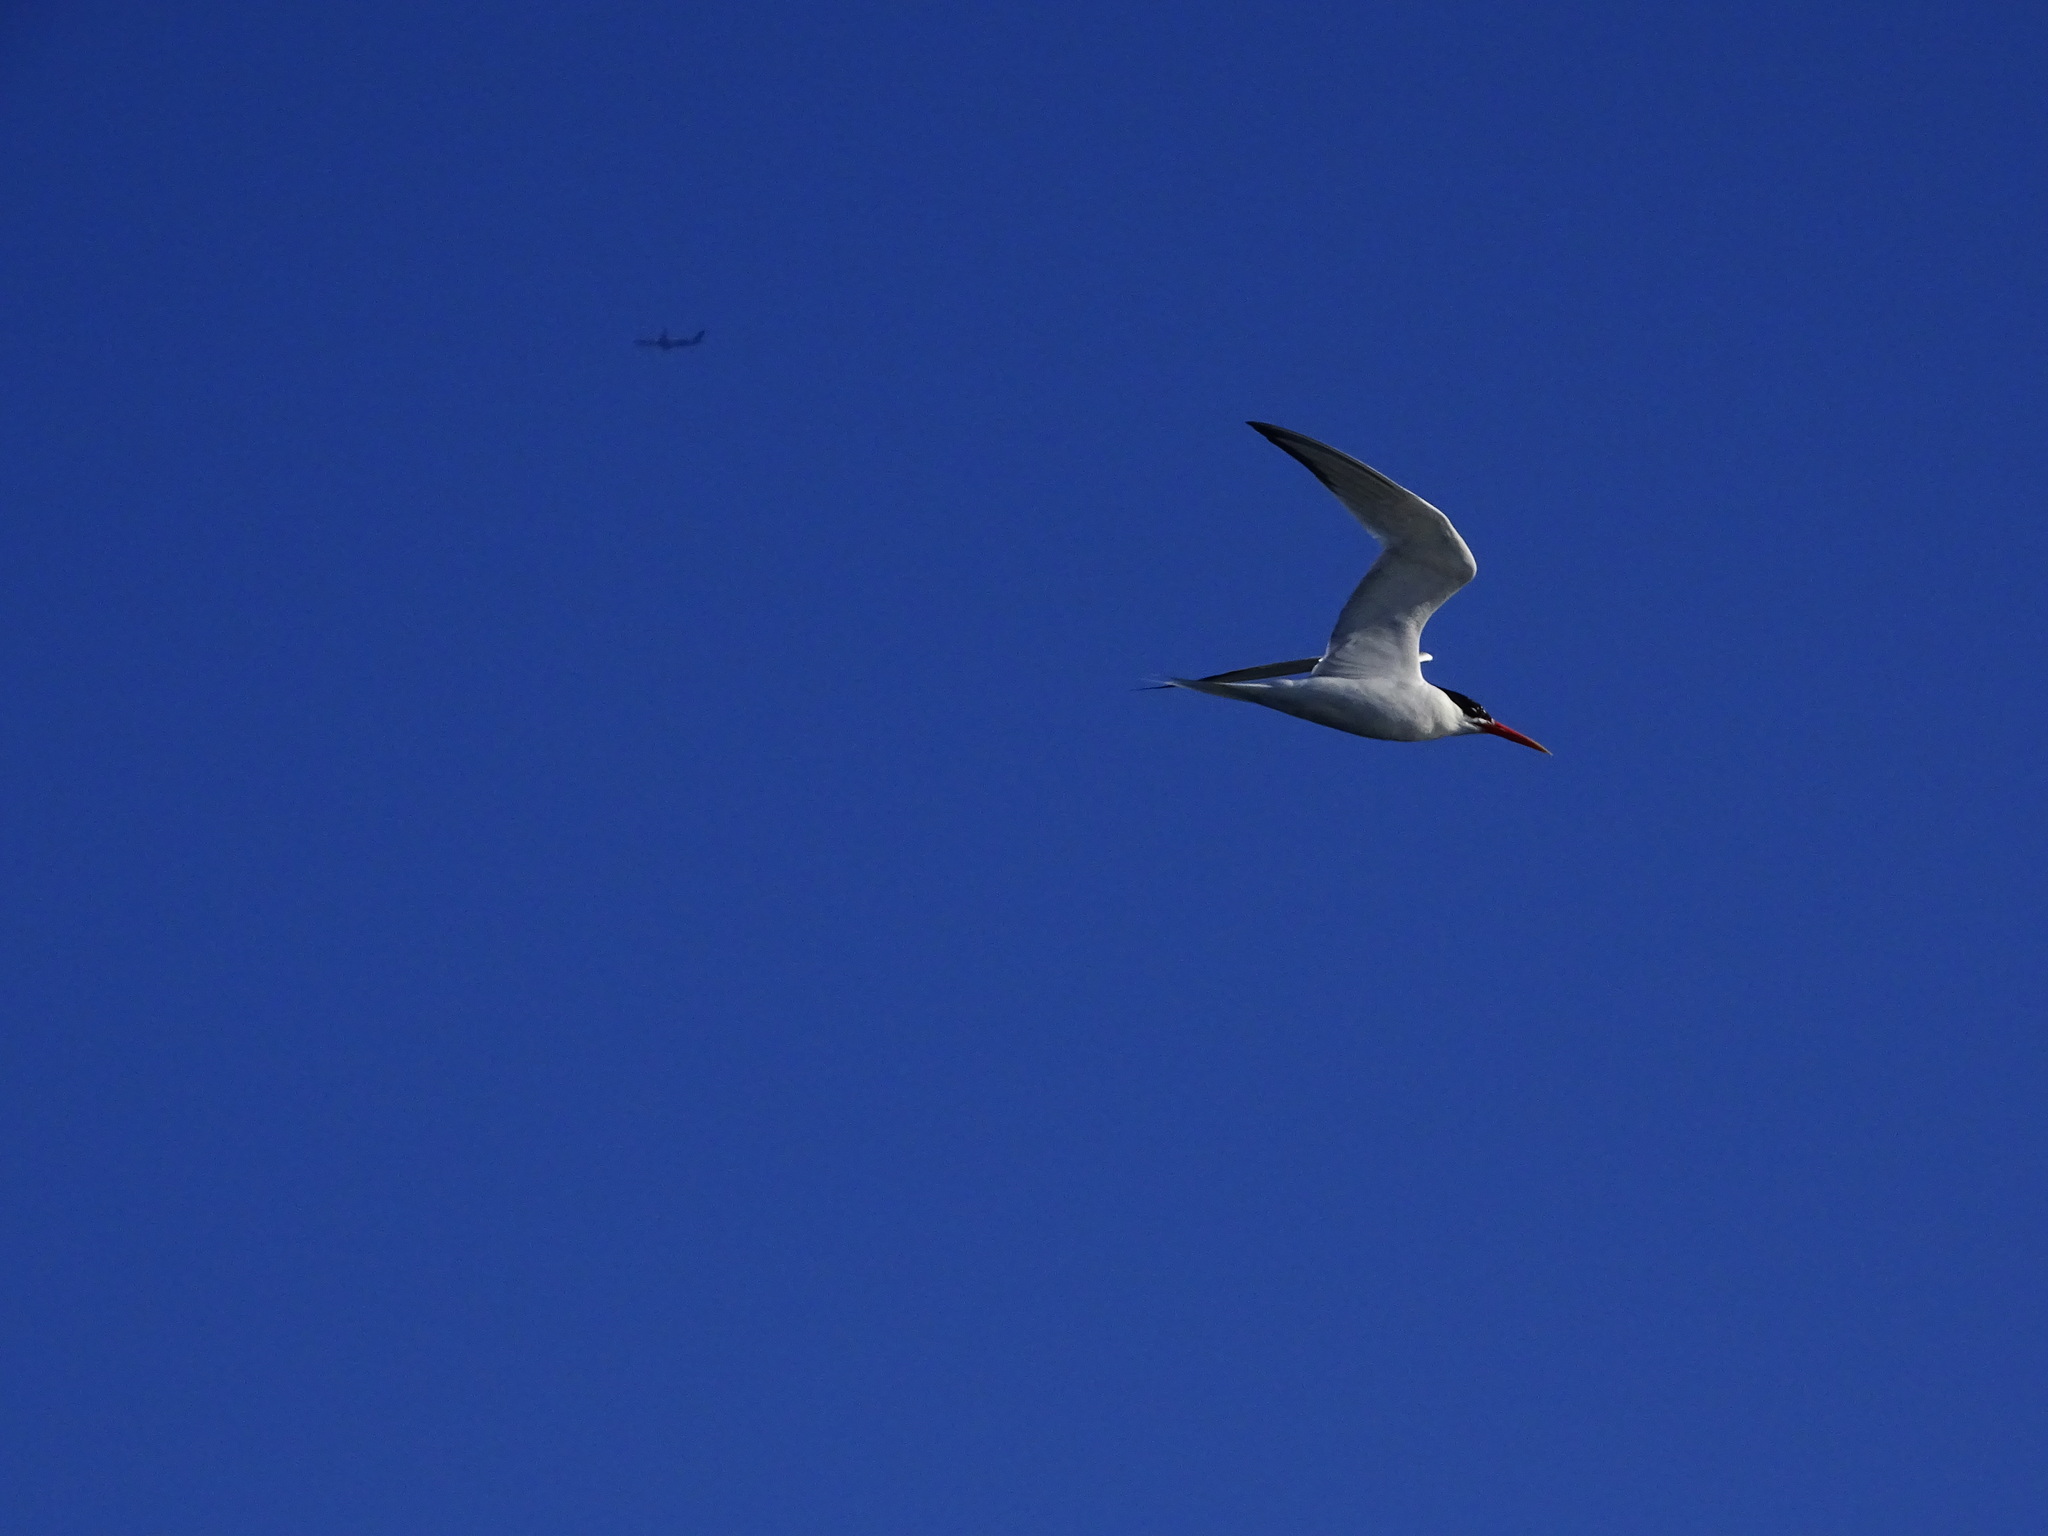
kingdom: Animalia
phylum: Chordata
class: Aves
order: Charadriiformes
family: Laridae
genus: Thalasseus
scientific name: Thalasseus elegans
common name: Elegant tern
